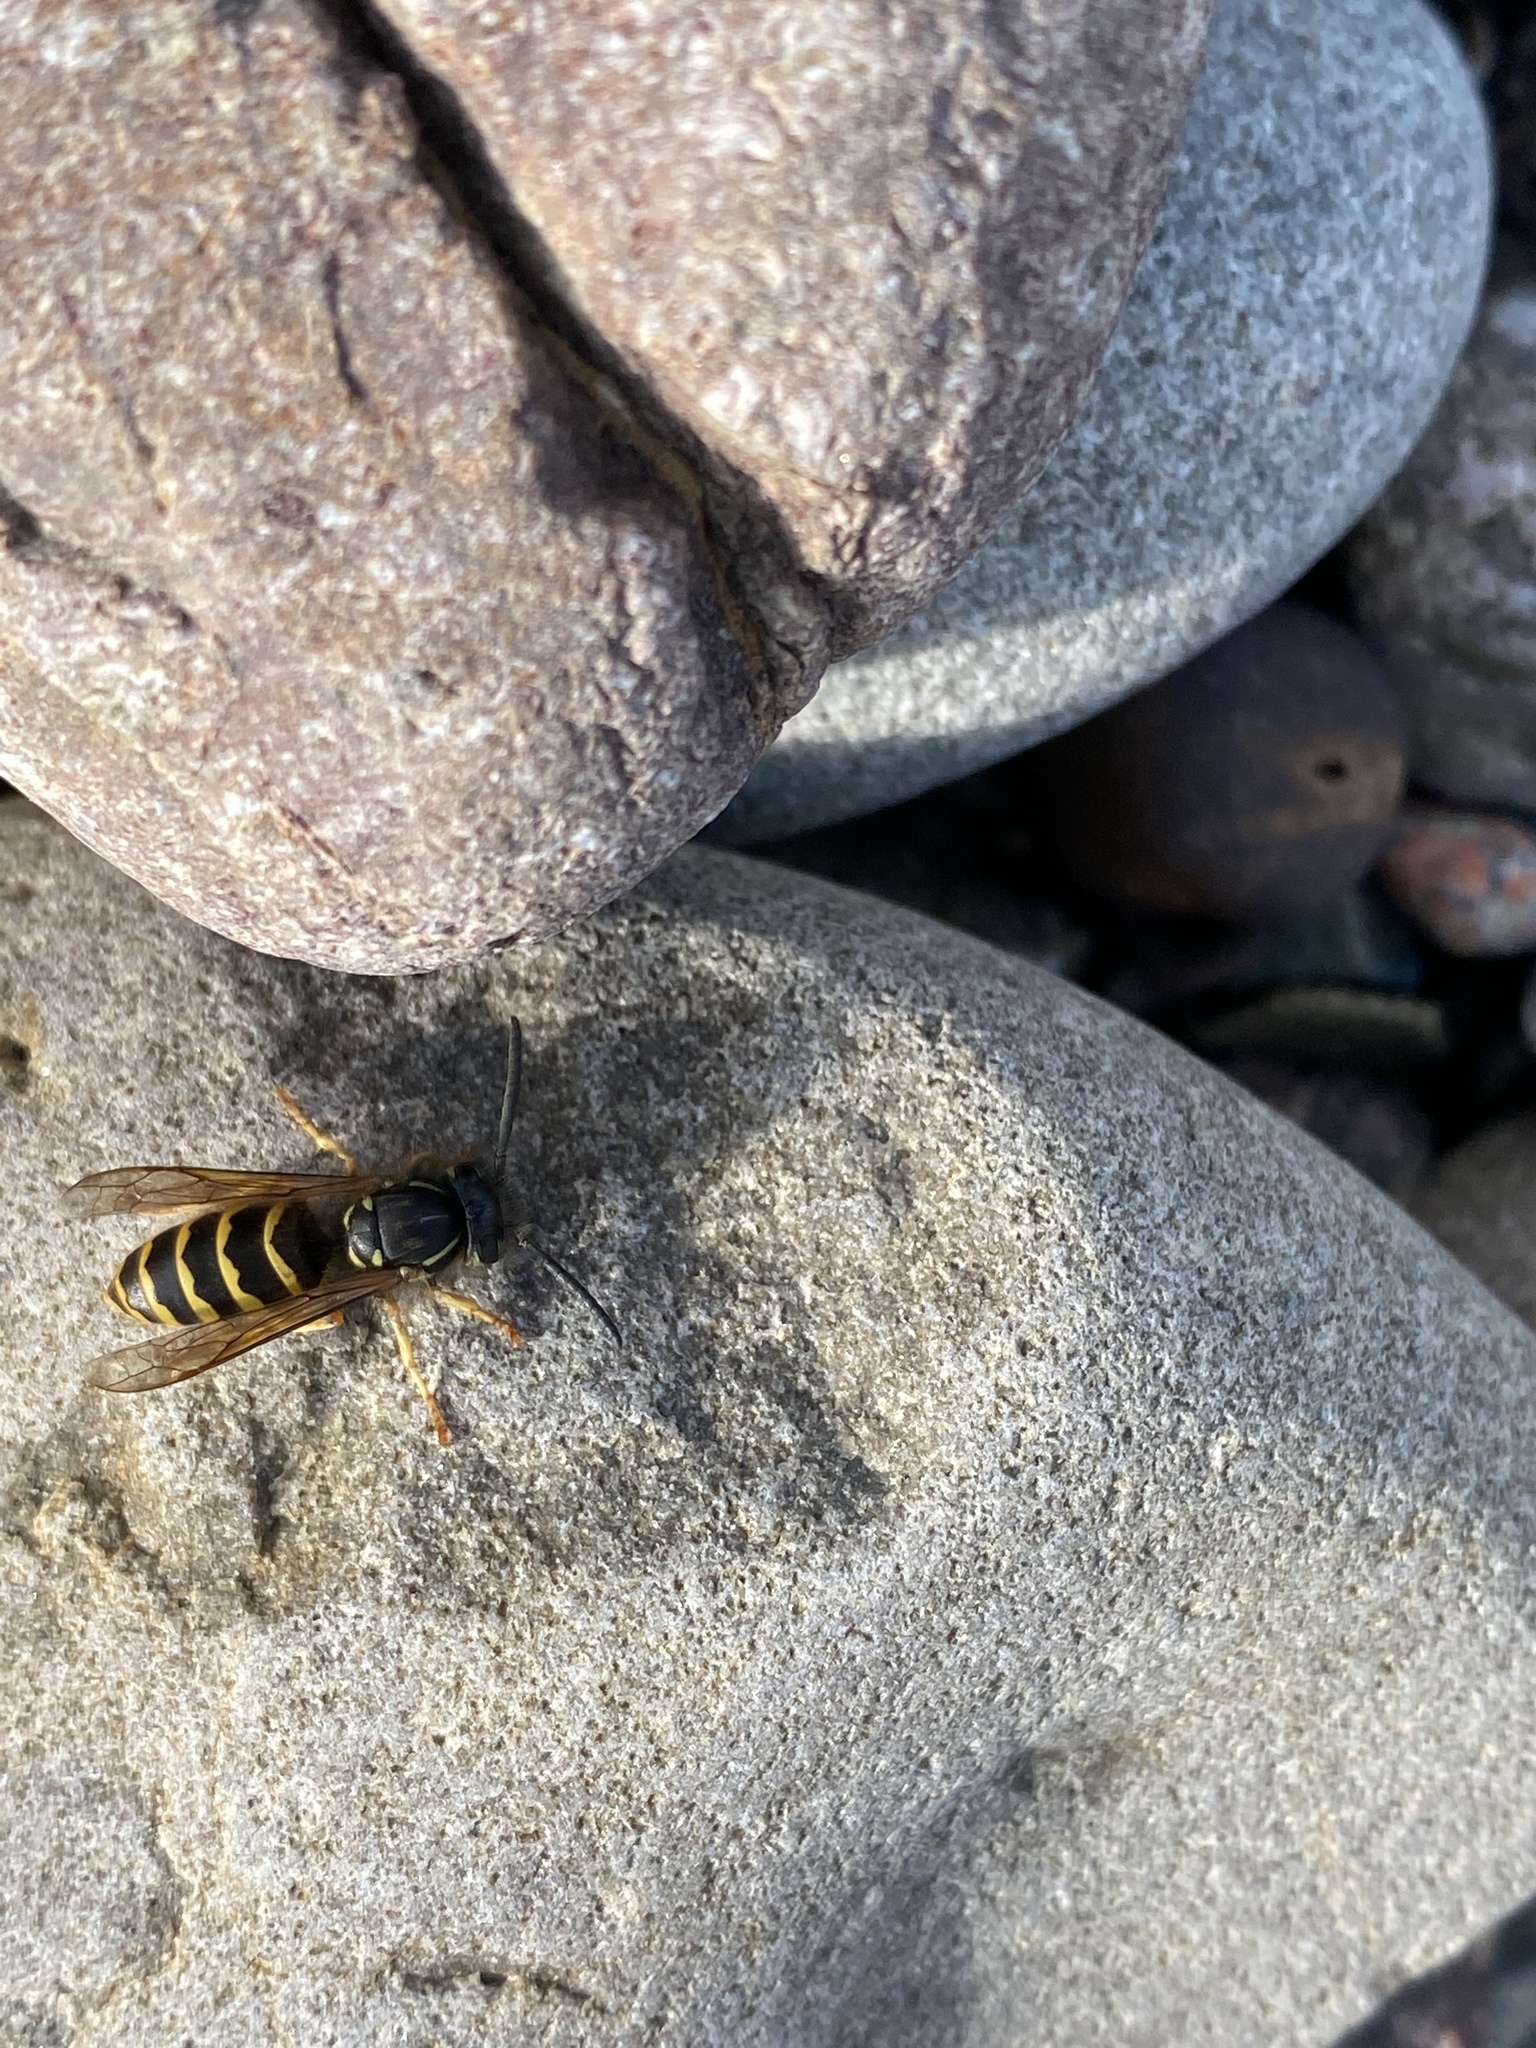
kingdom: Animalia
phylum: Arthropoda
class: Insecta
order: Hymenoptera
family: Vespidae
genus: Vespula
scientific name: Vespula alascensis
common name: Alaska yellowjacket
